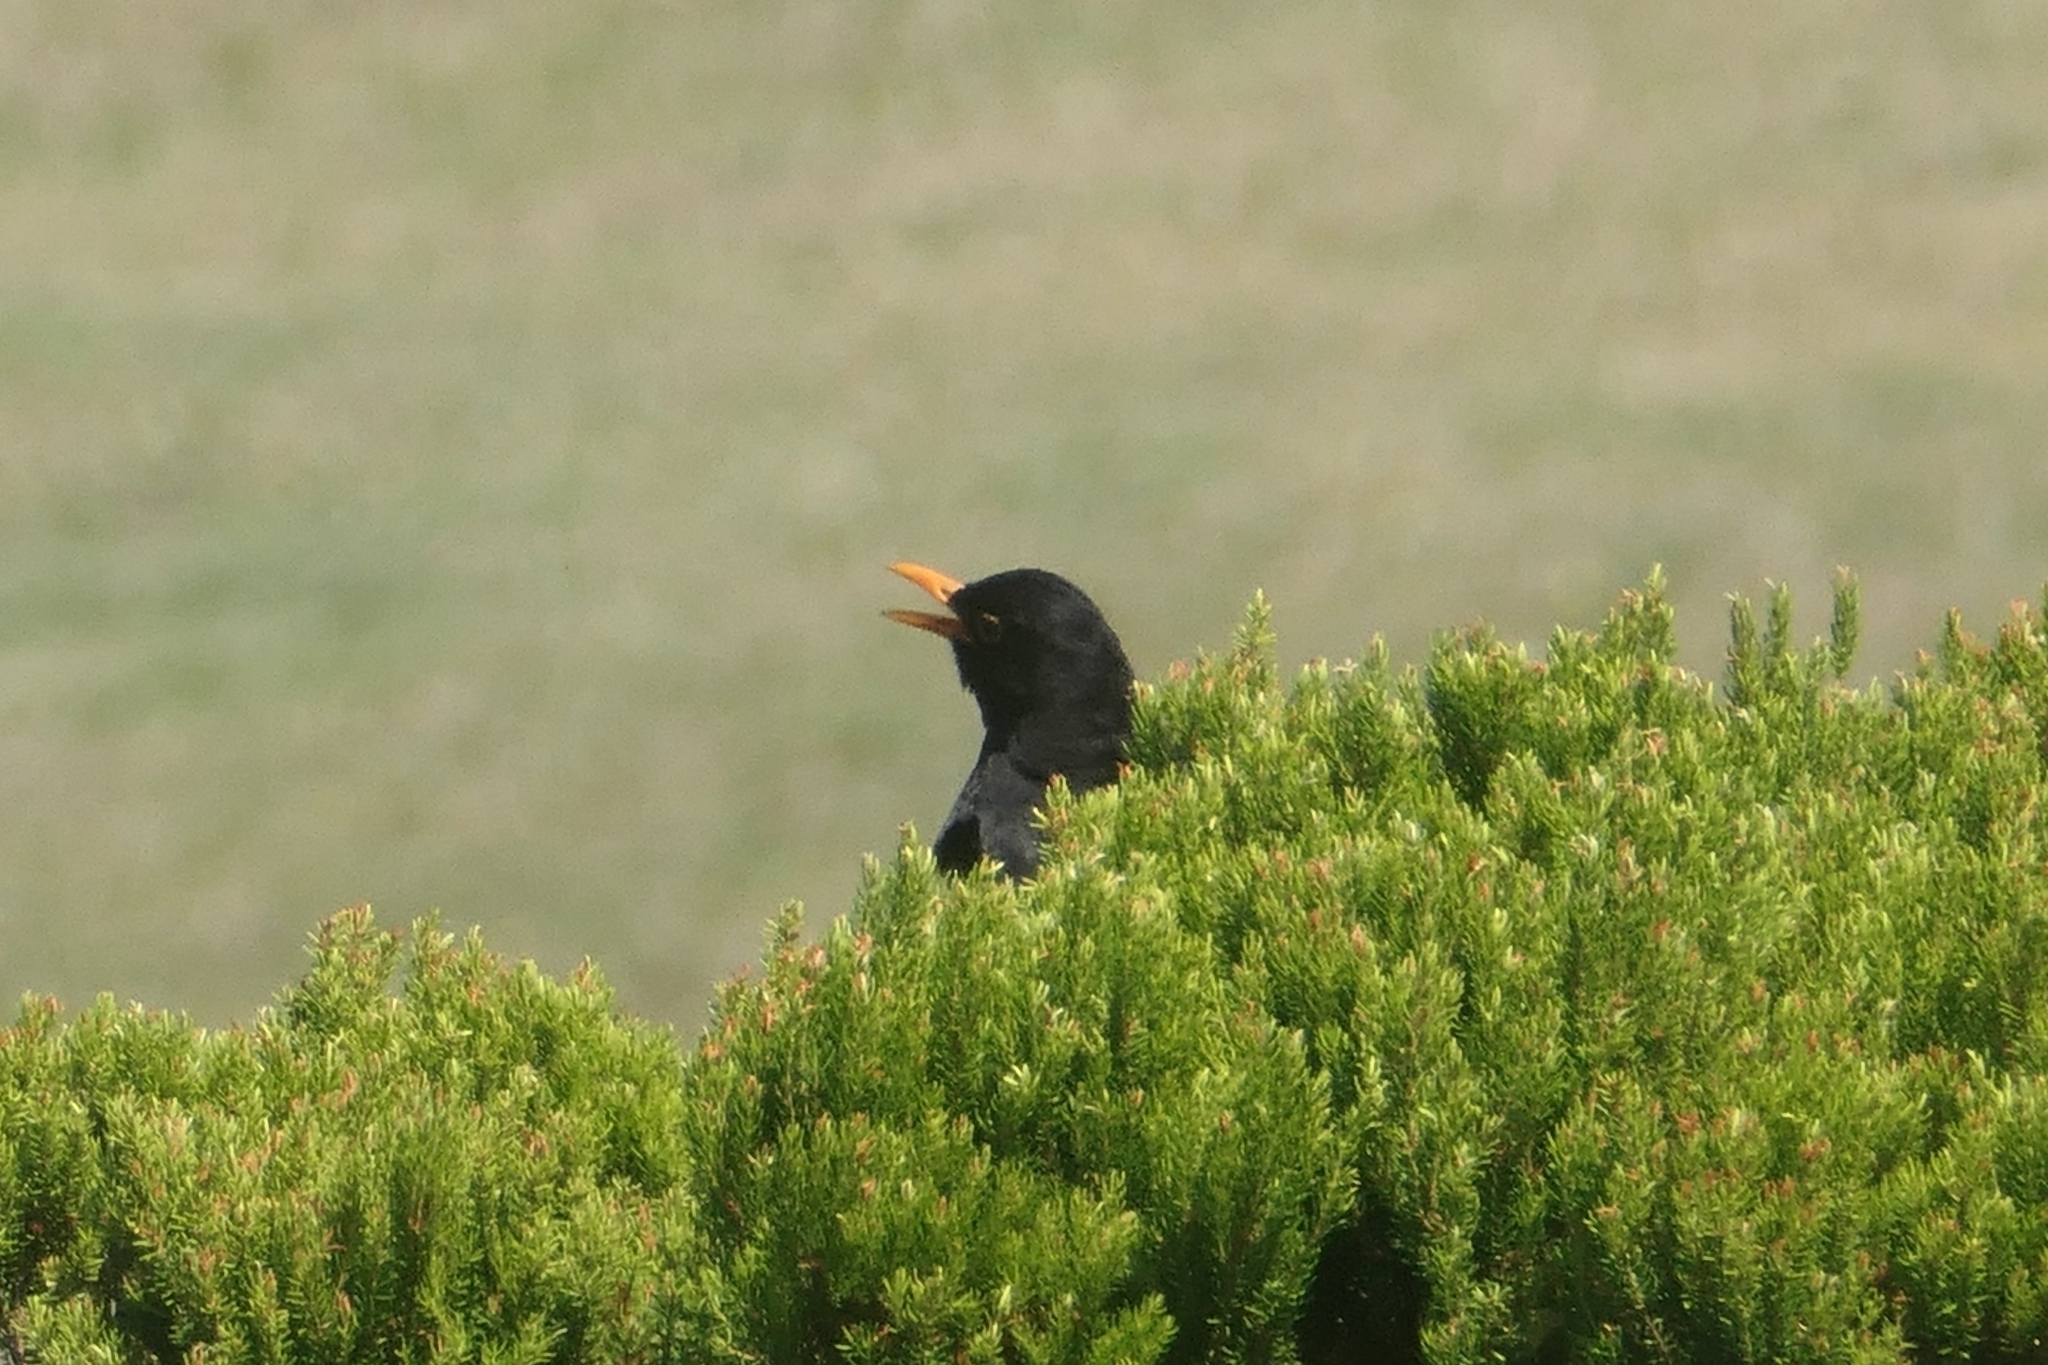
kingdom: Animalia
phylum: Chordata
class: Aves
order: Passeriformes
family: Turdidae
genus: Turdus
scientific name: Turdus merula
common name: Common blackbird
